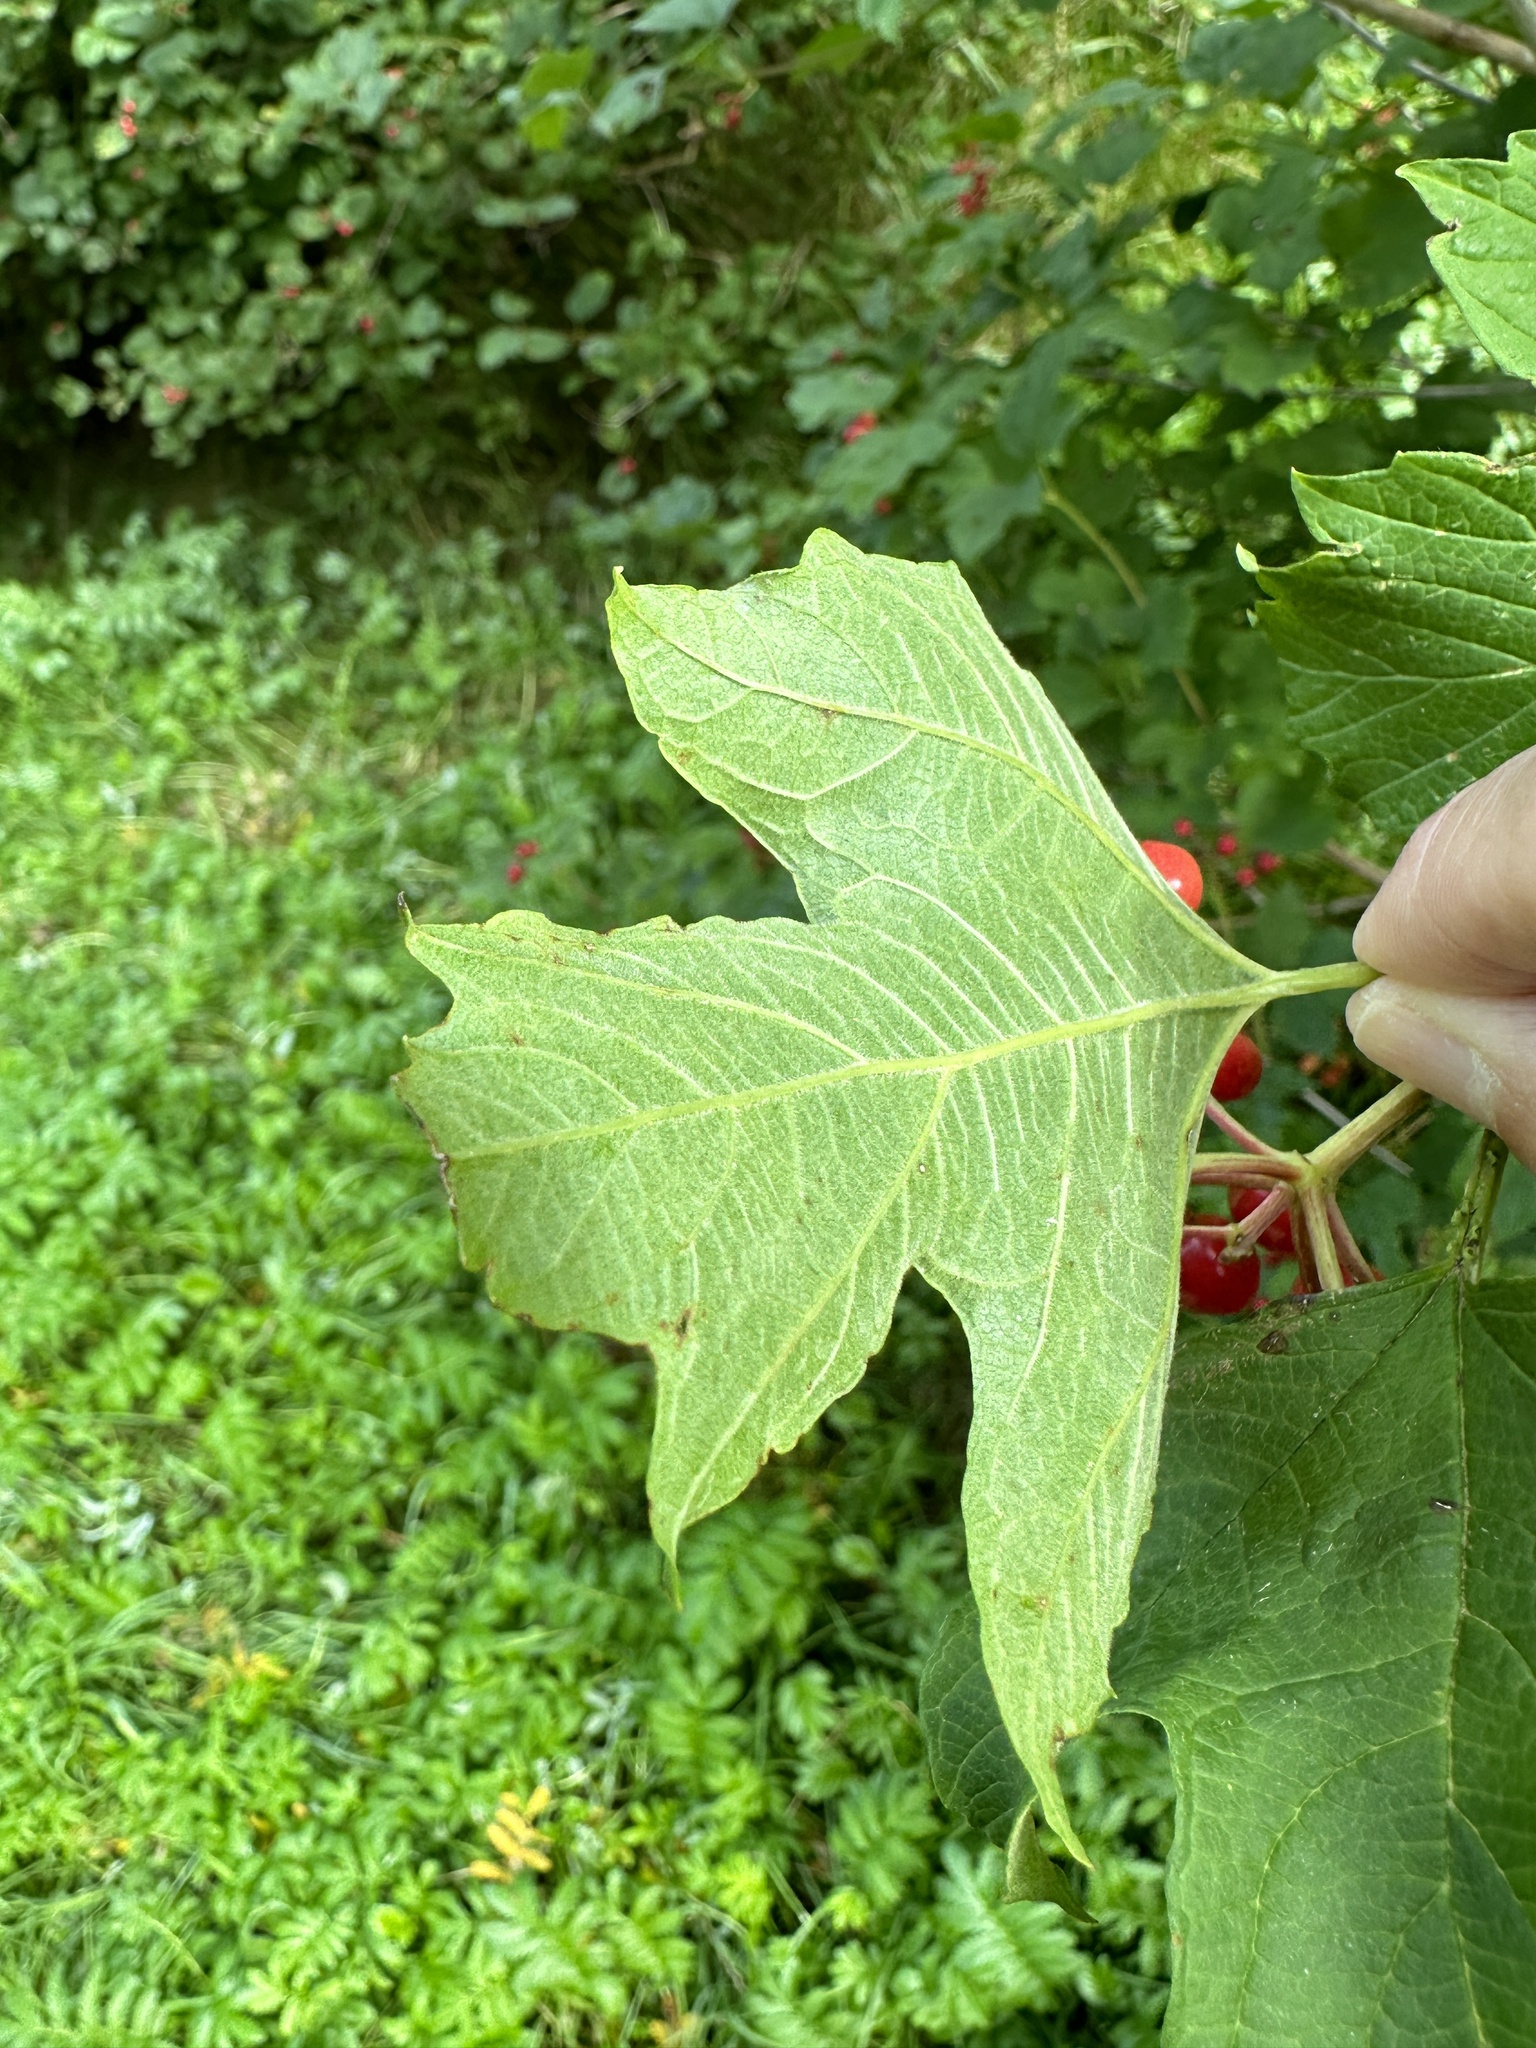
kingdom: Plantae
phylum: Tracheophyta
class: Magnoliopsida
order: Dipsacales
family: Viburnaceae
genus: Viburnum
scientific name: Viburnum opulus
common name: Guelder-rose
